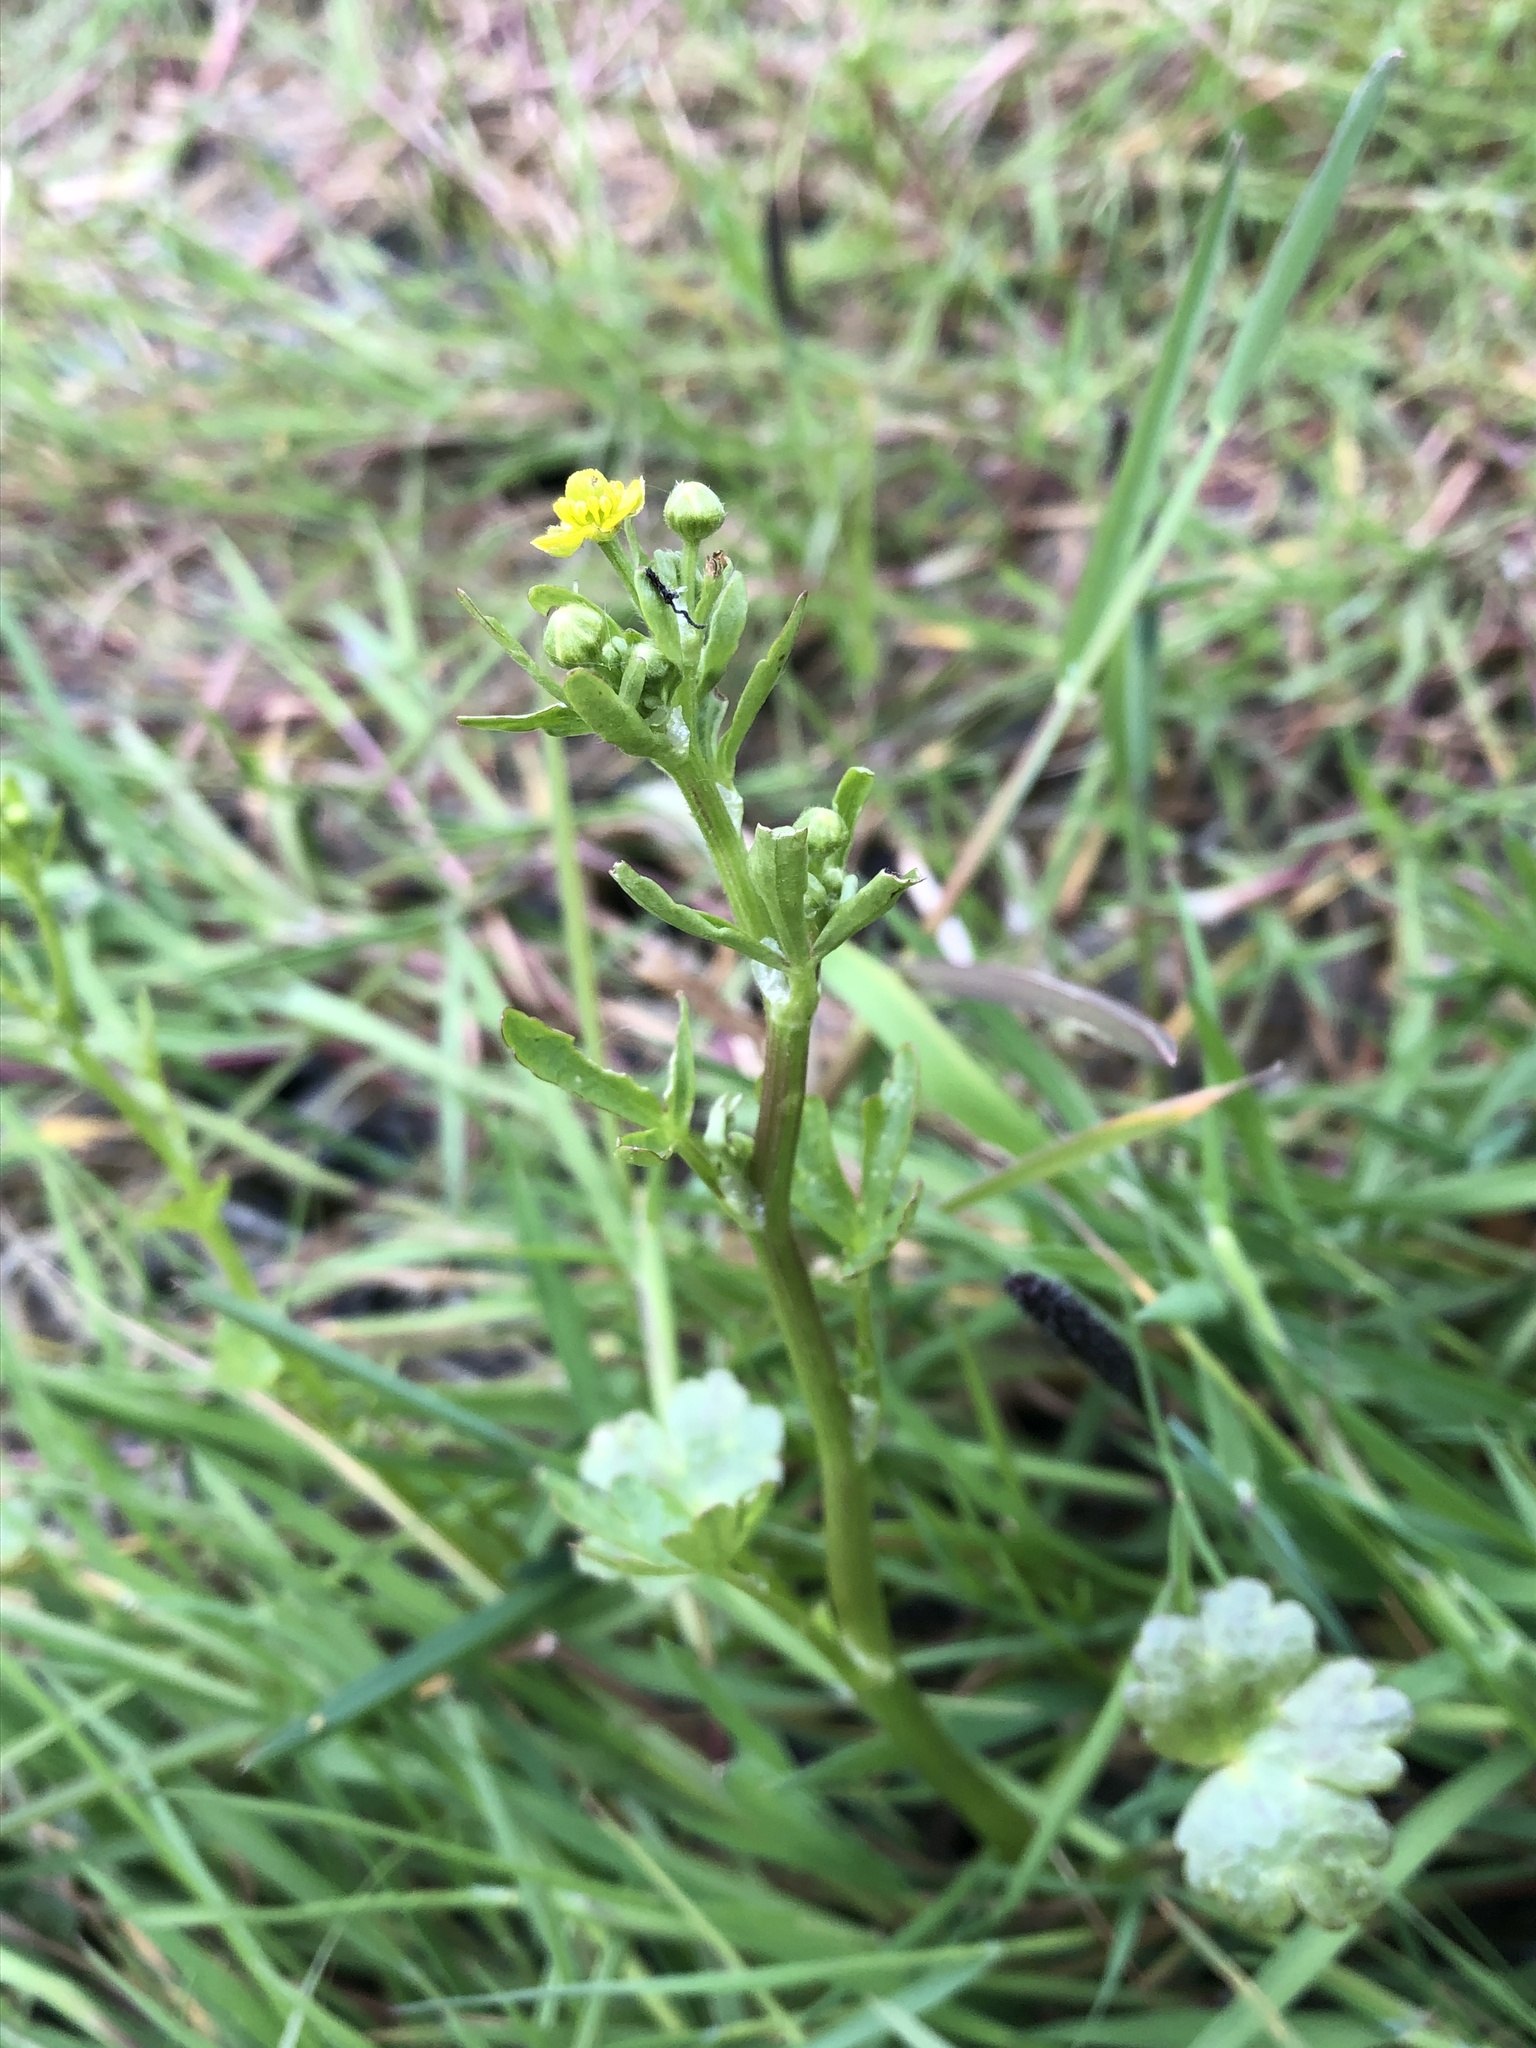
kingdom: Plantae
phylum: Tracheophyta
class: Magnoliopsida
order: Ranunculales
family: Ranunculaceae
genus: Ranunculus
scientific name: Ranunculus sceleratus
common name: Celery-leaved buttercup
